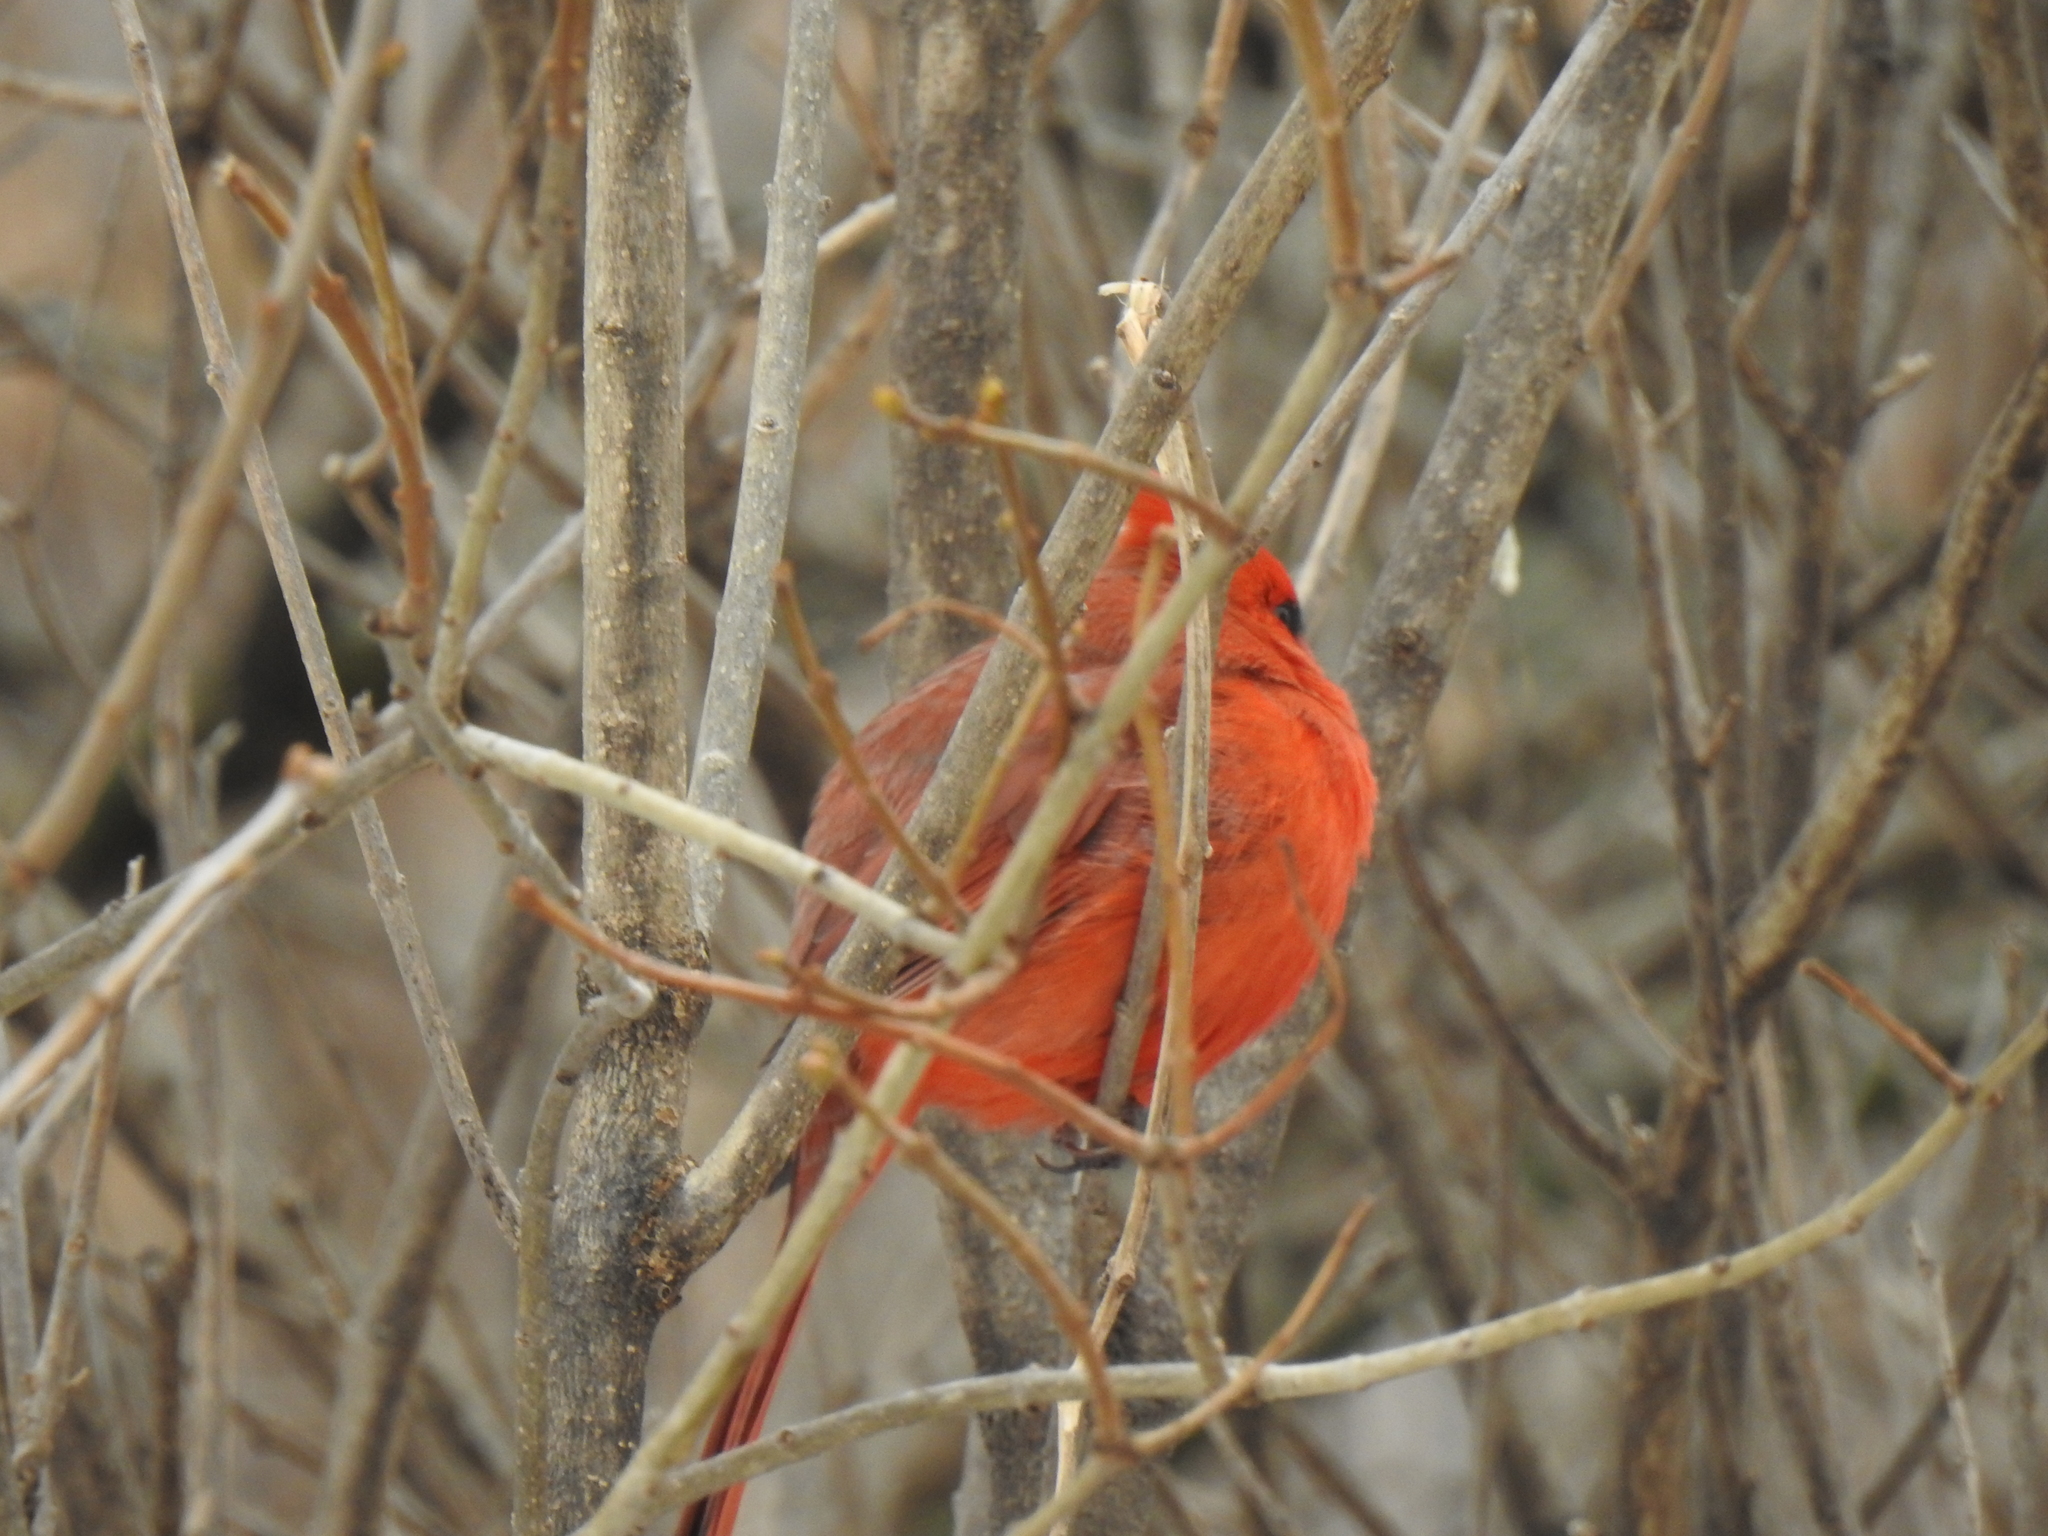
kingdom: Animalia
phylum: Chordata
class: Aves
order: Passeriformes
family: Cardinalidae
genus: Cardinalis
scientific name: Cardinalis cardinalis
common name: Northern cardinal
